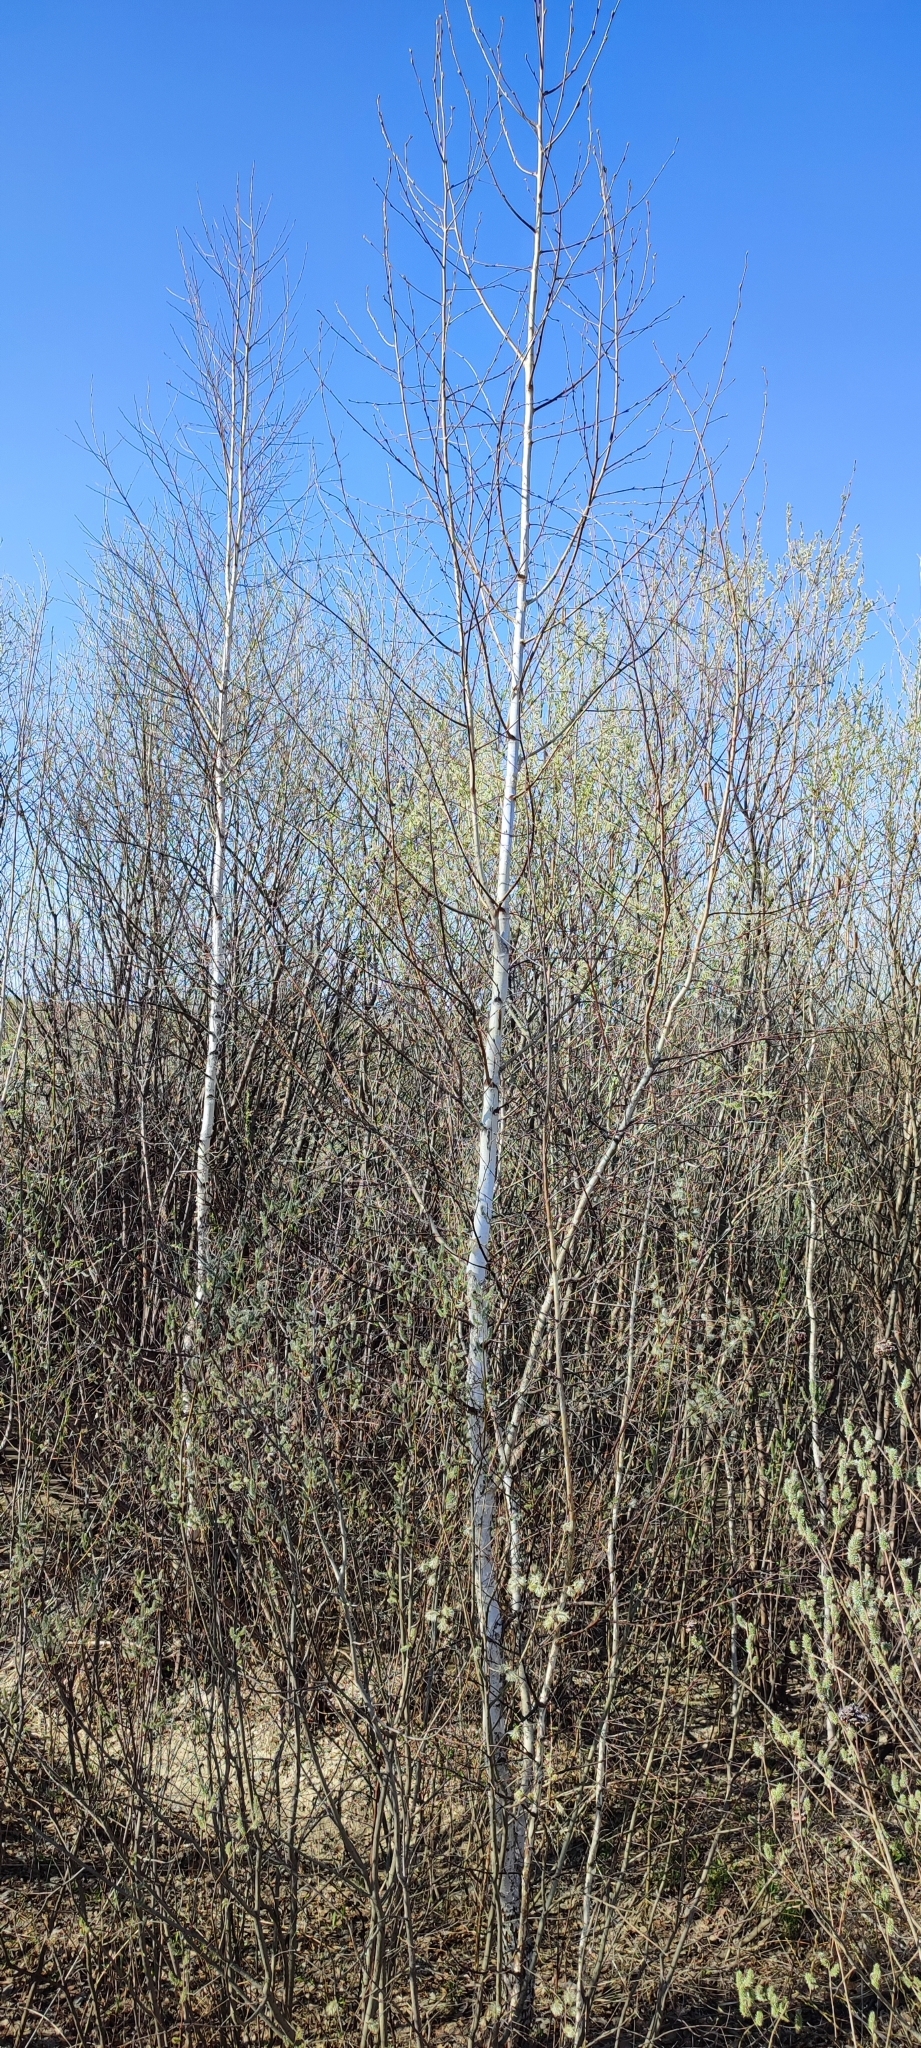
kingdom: Plantae
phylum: Tracheophyta
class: Magnoliopsida
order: Fagales
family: Betulaceae
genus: Betula
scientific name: Betula pendula
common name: Silver birch
